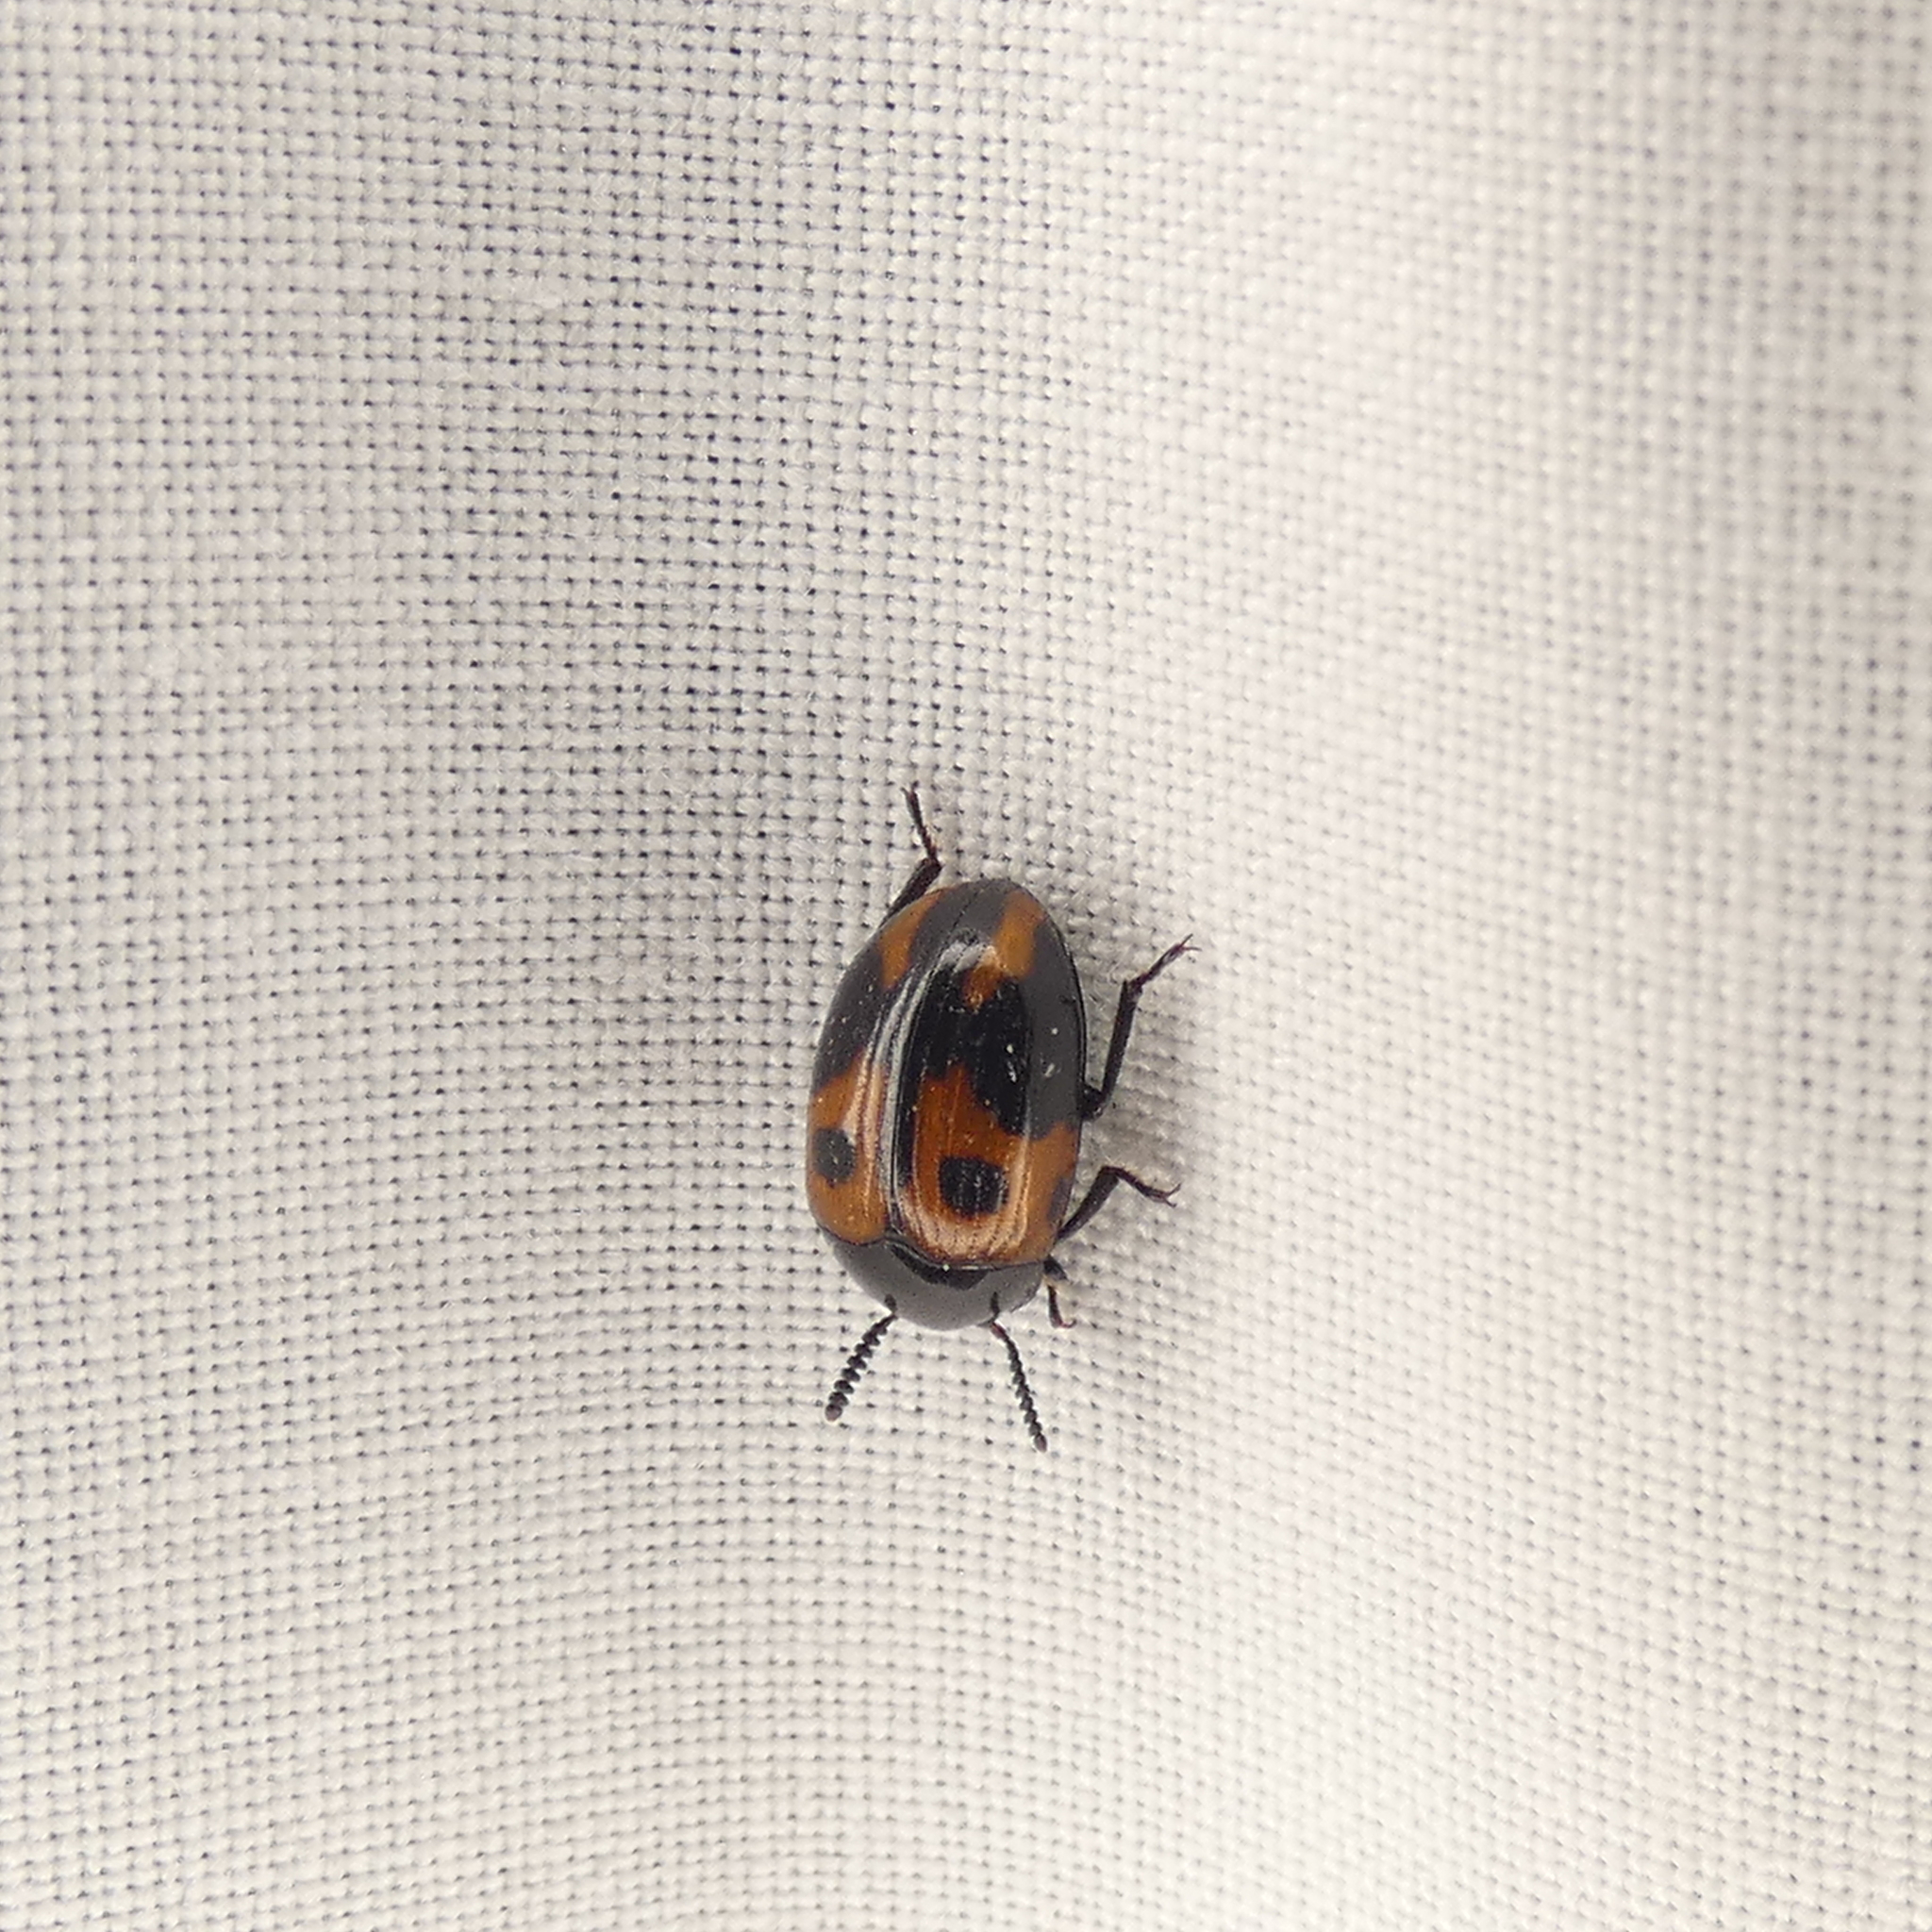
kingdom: Animalia
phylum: Arthropoda
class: Insecta
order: Coleoptera
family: Tenebrionidae
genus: Diaperis
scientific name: Diaperis maculata
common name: Darkling beetle
